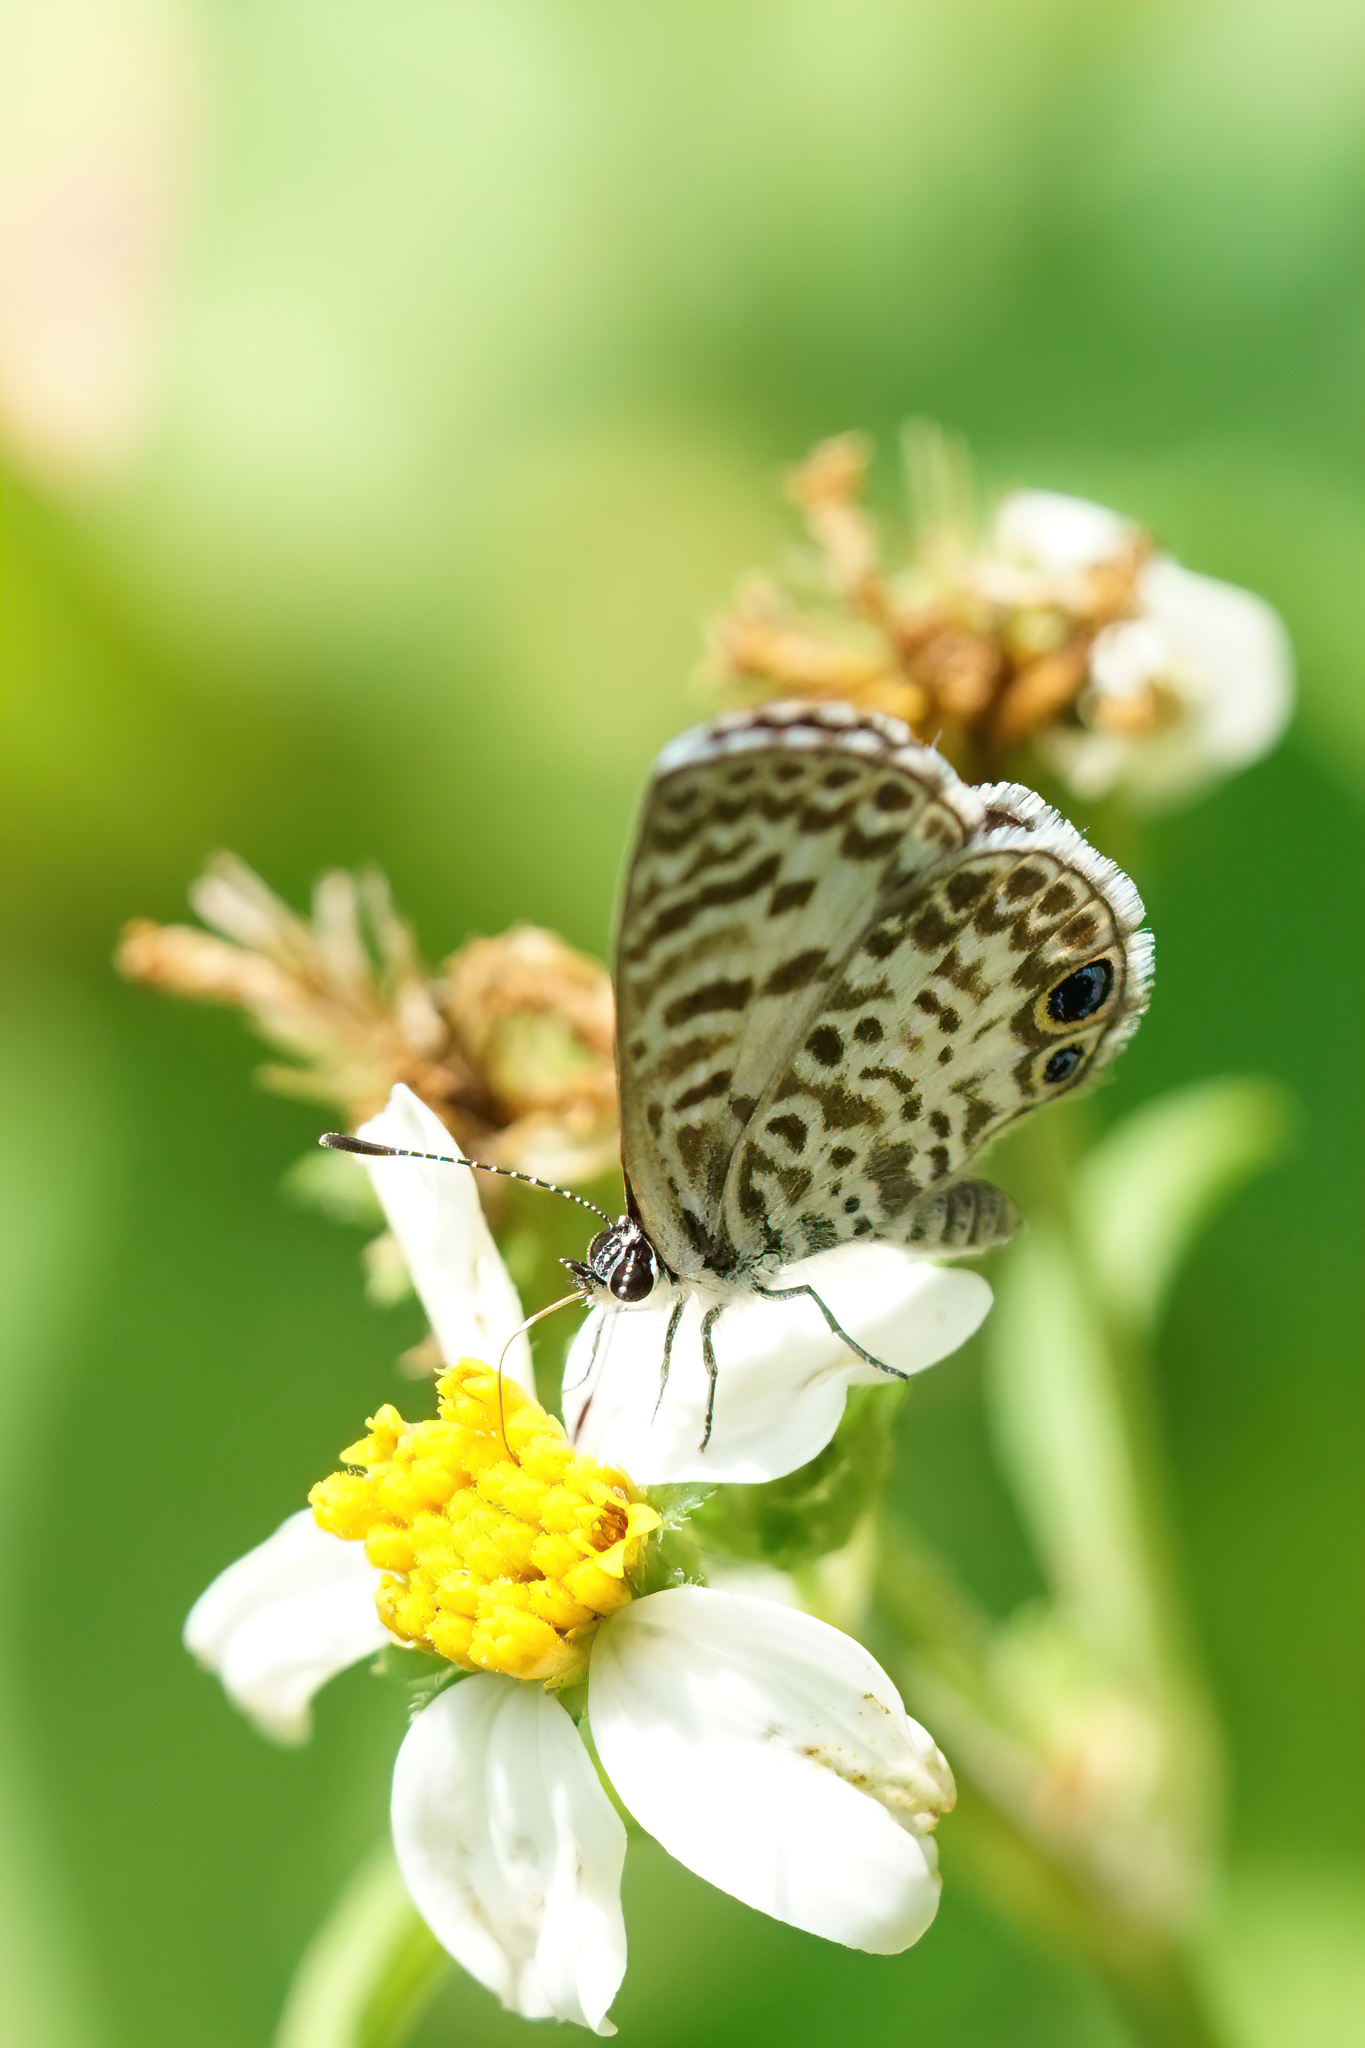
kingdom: Animalia
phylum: Arthropoda
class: Insecta
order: Lepidoptera
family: Lycaenidae
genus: Leptotes
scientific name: Leptotes cassius
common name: Cassius blue
